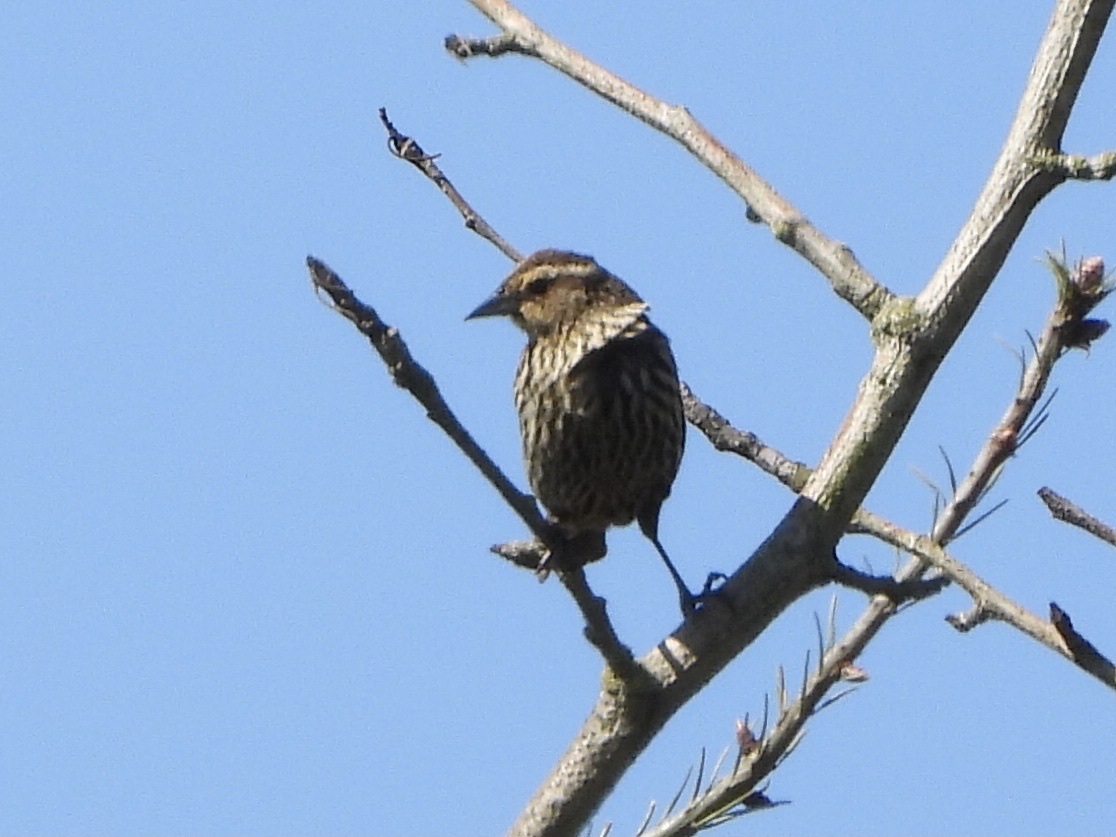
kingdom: Animalia
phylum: Chordata
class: Aves
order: Passeriformes
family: Icteridae
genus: Agelaius
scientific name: Agelaius phoeniceus
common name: Red-winged blackbird
